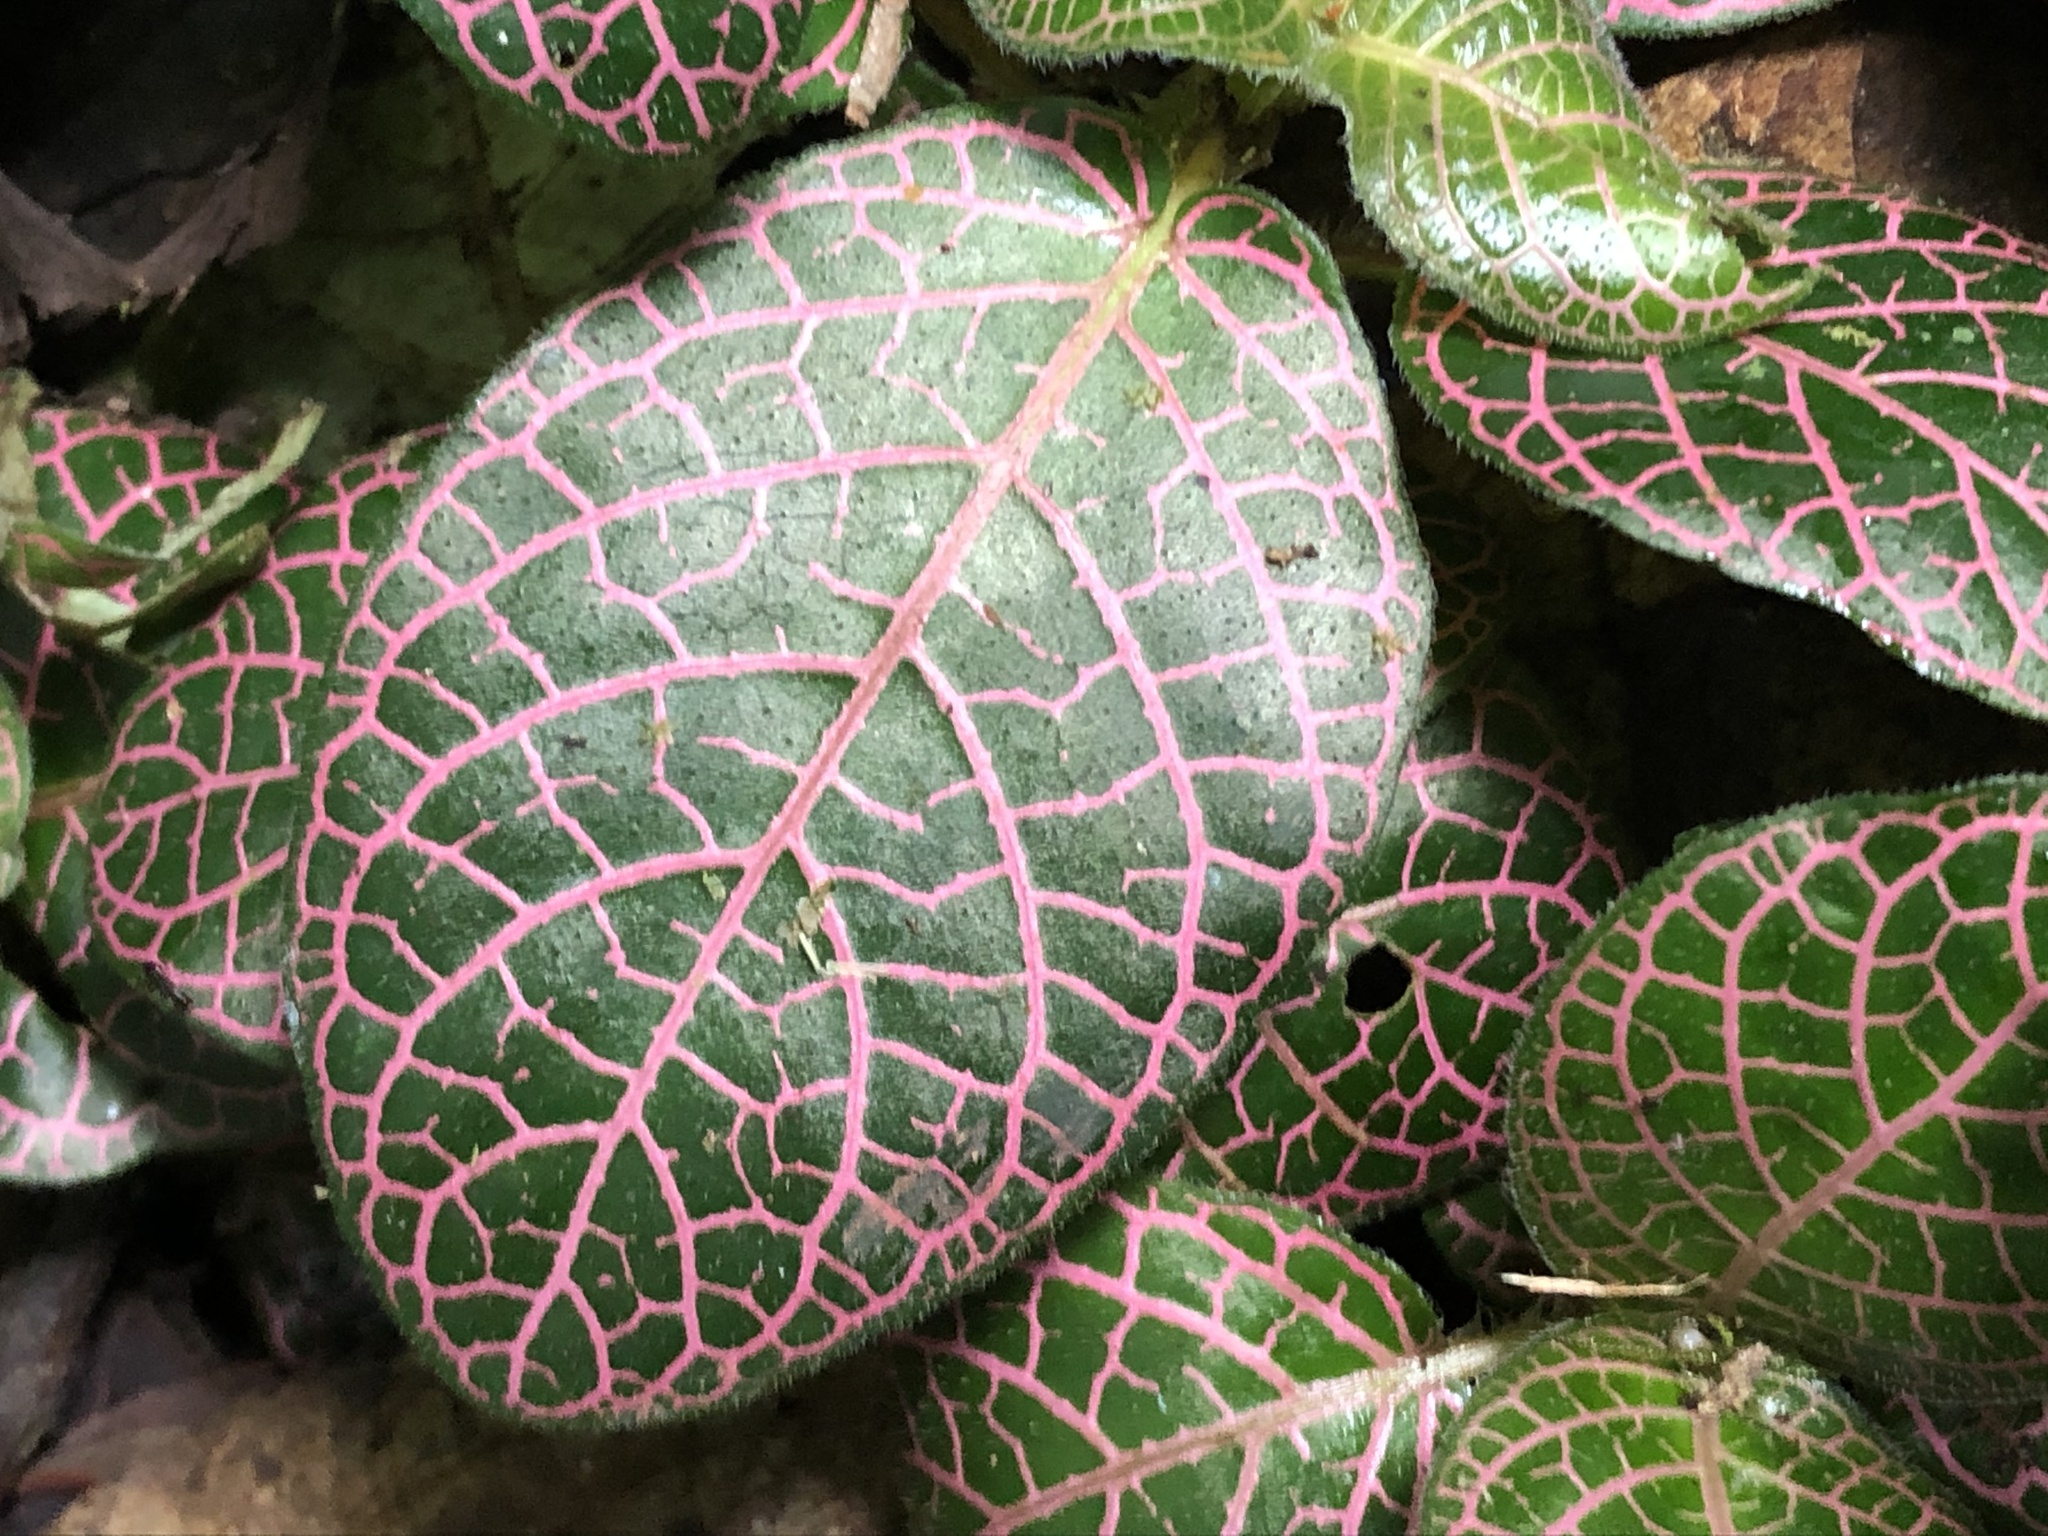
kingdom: Plantae
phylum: Tracheophyta
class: Magnoliopsida
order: Lamiales
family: Acanthaceae
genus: Fittonia
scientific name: Fittonia albivenis
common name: Mosaic-plant
